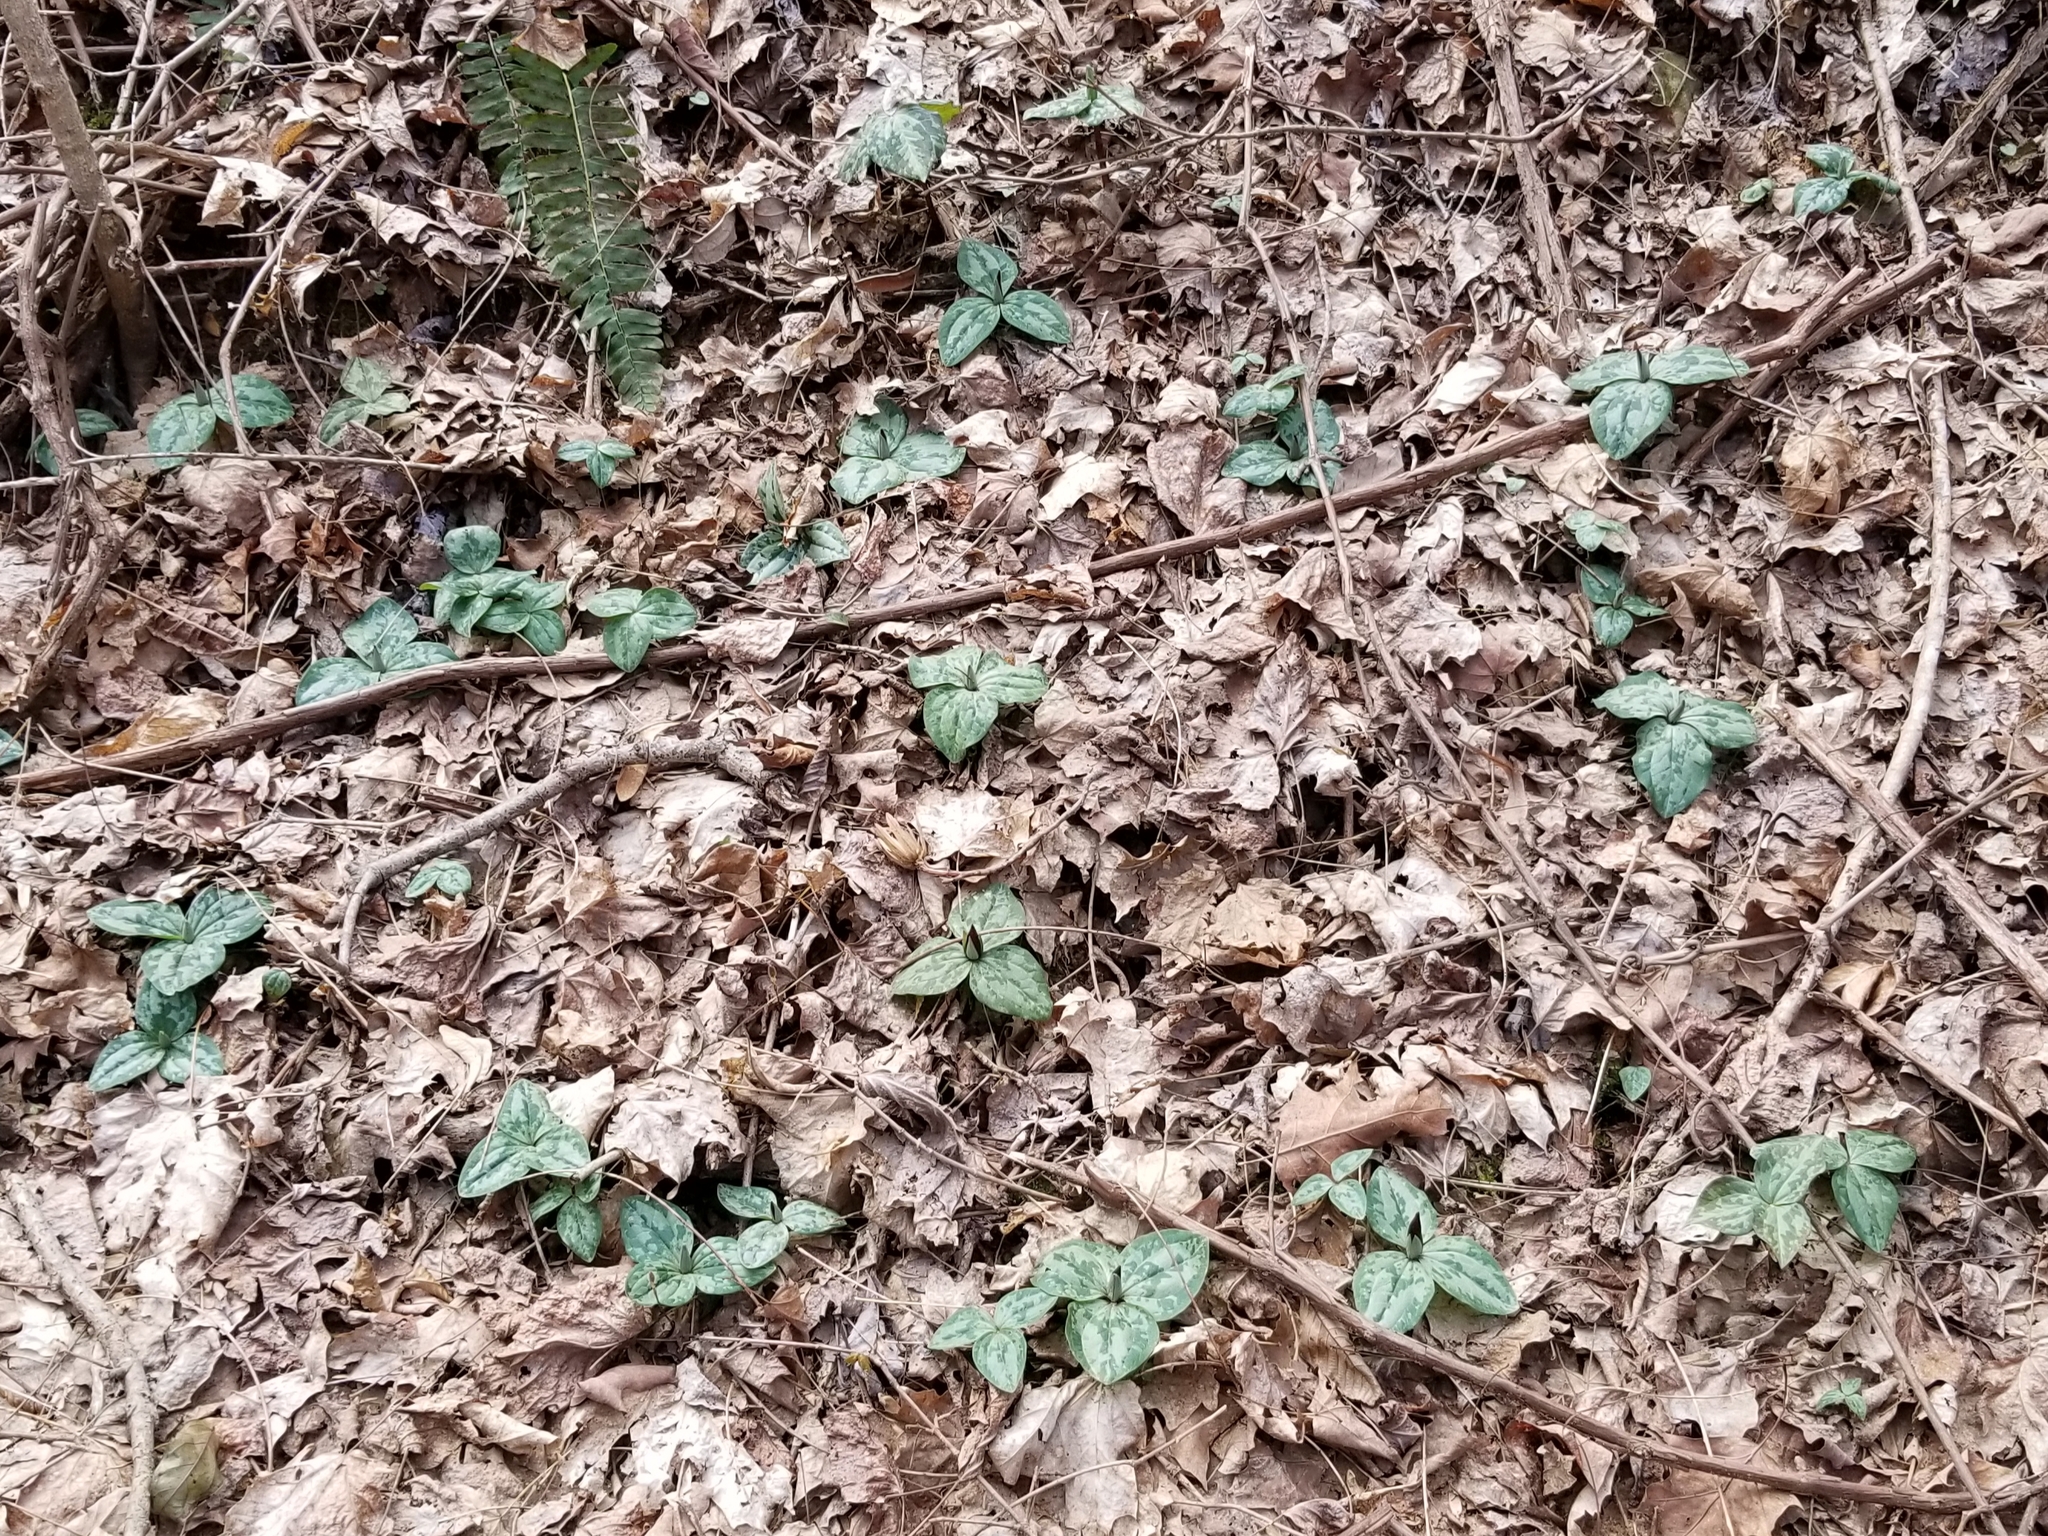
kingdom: Plantae
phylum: Tracheophyta
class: Liliopsida
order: Liliales
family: Melanthiaceae
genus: Trillium
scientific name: Trillium decumbens
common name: Decumbent trillium
